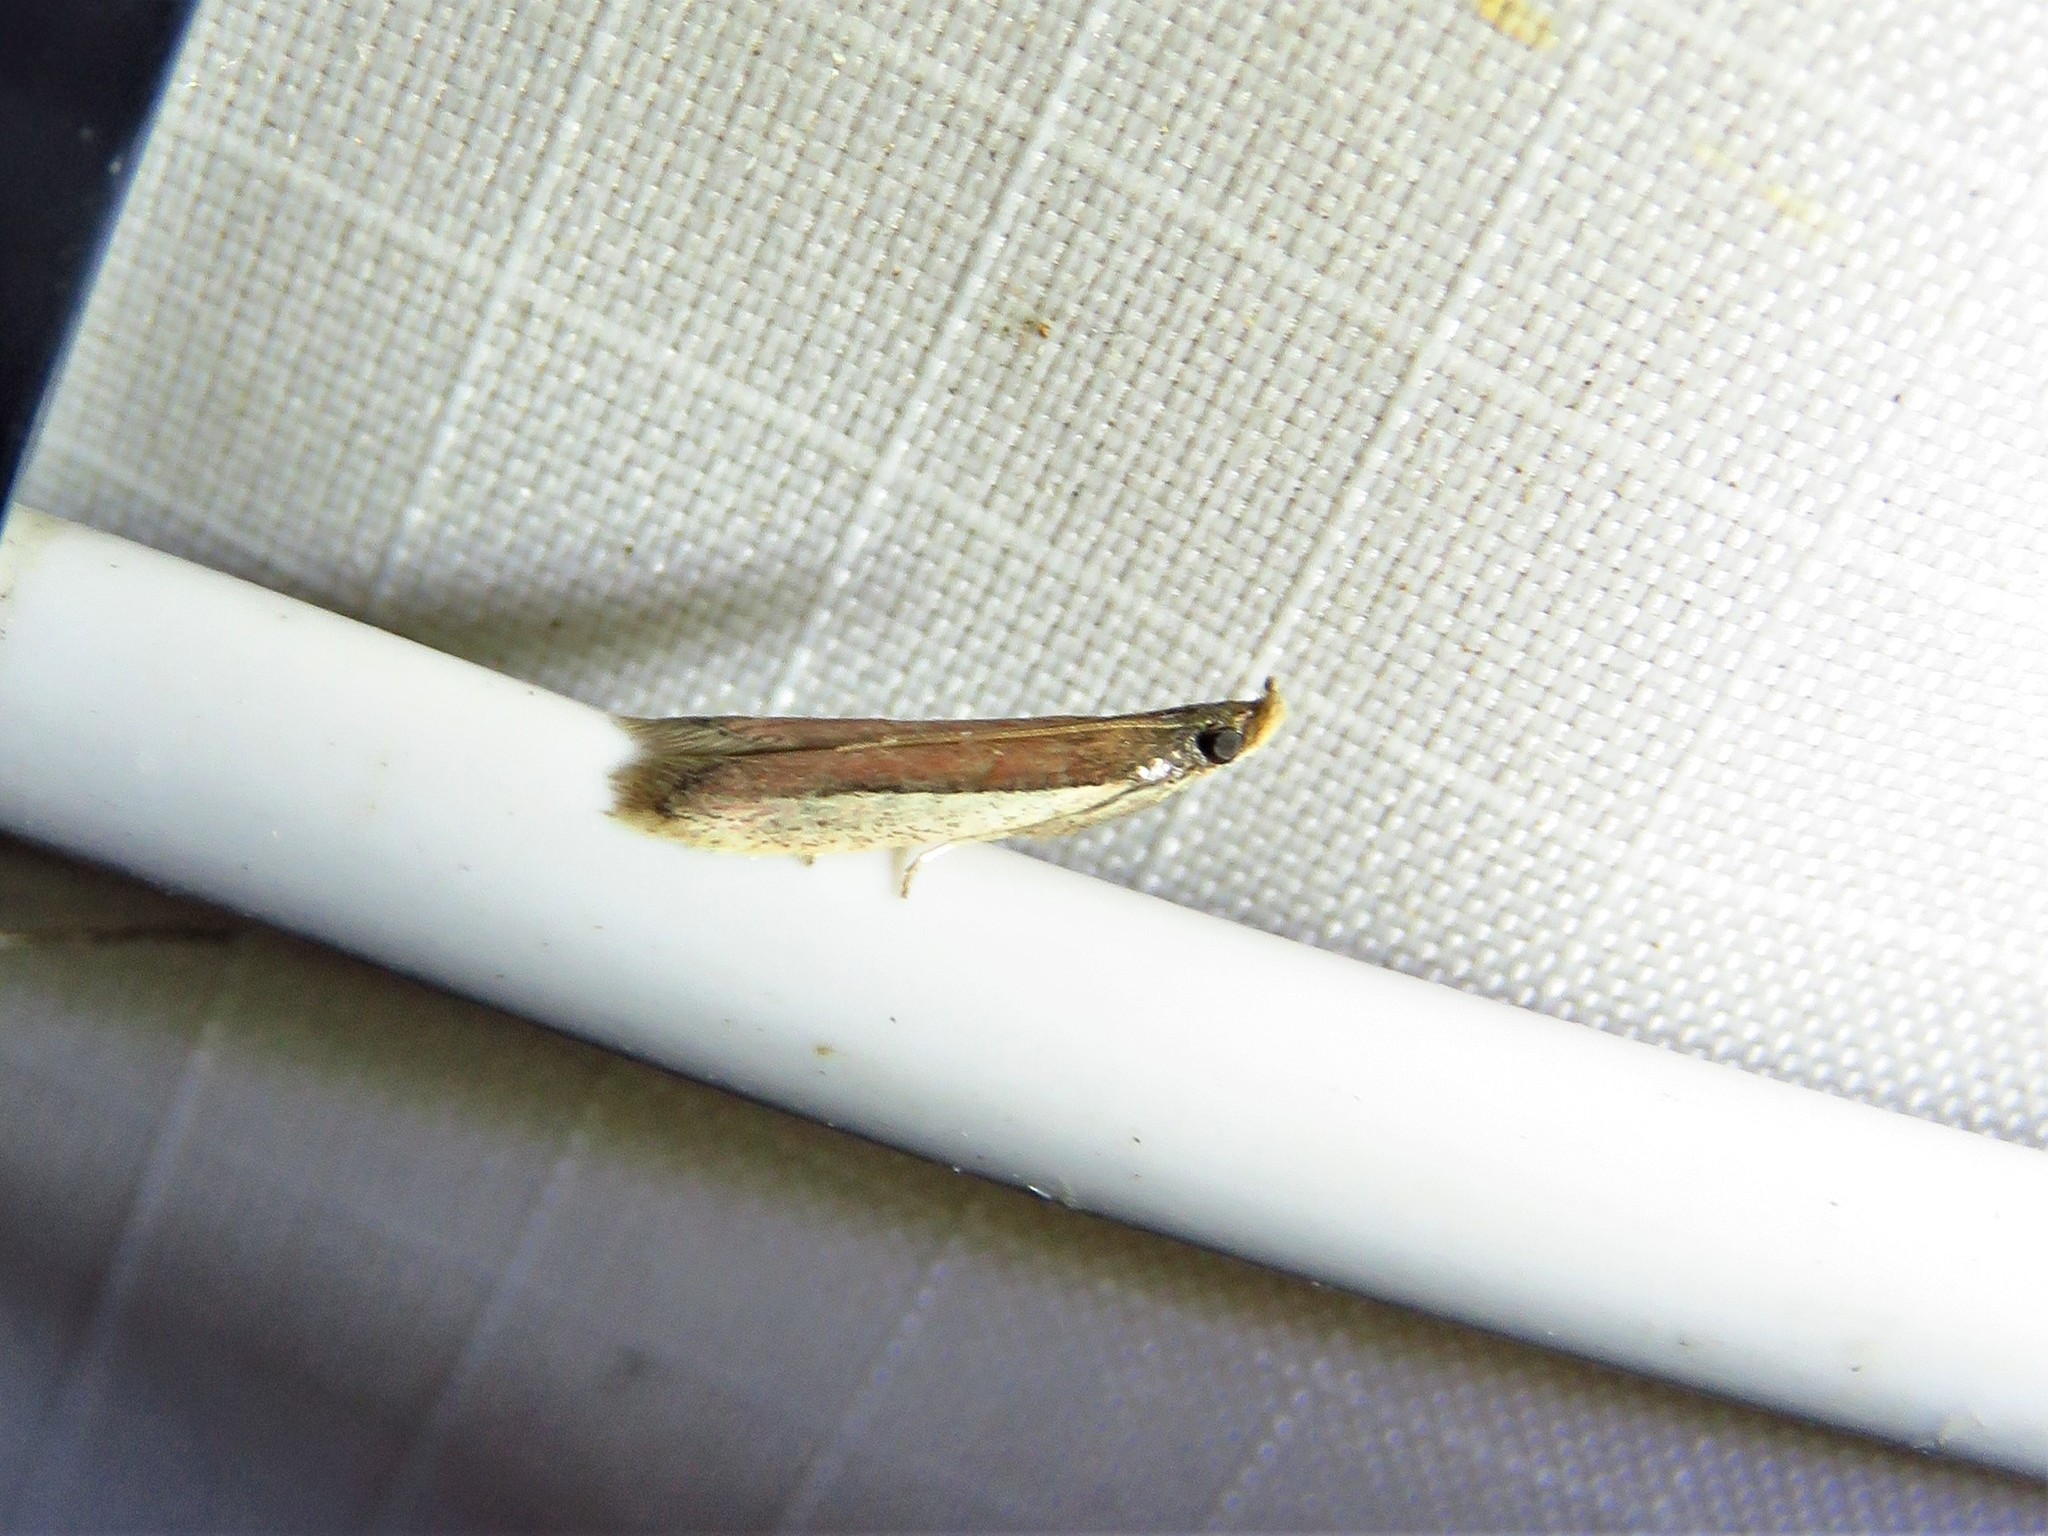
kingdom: Animalia
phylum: Arthropoda
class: Insecta
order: Lepidoptera
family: Pyralidae
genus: Tampa
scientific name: Tampa dimediatella
